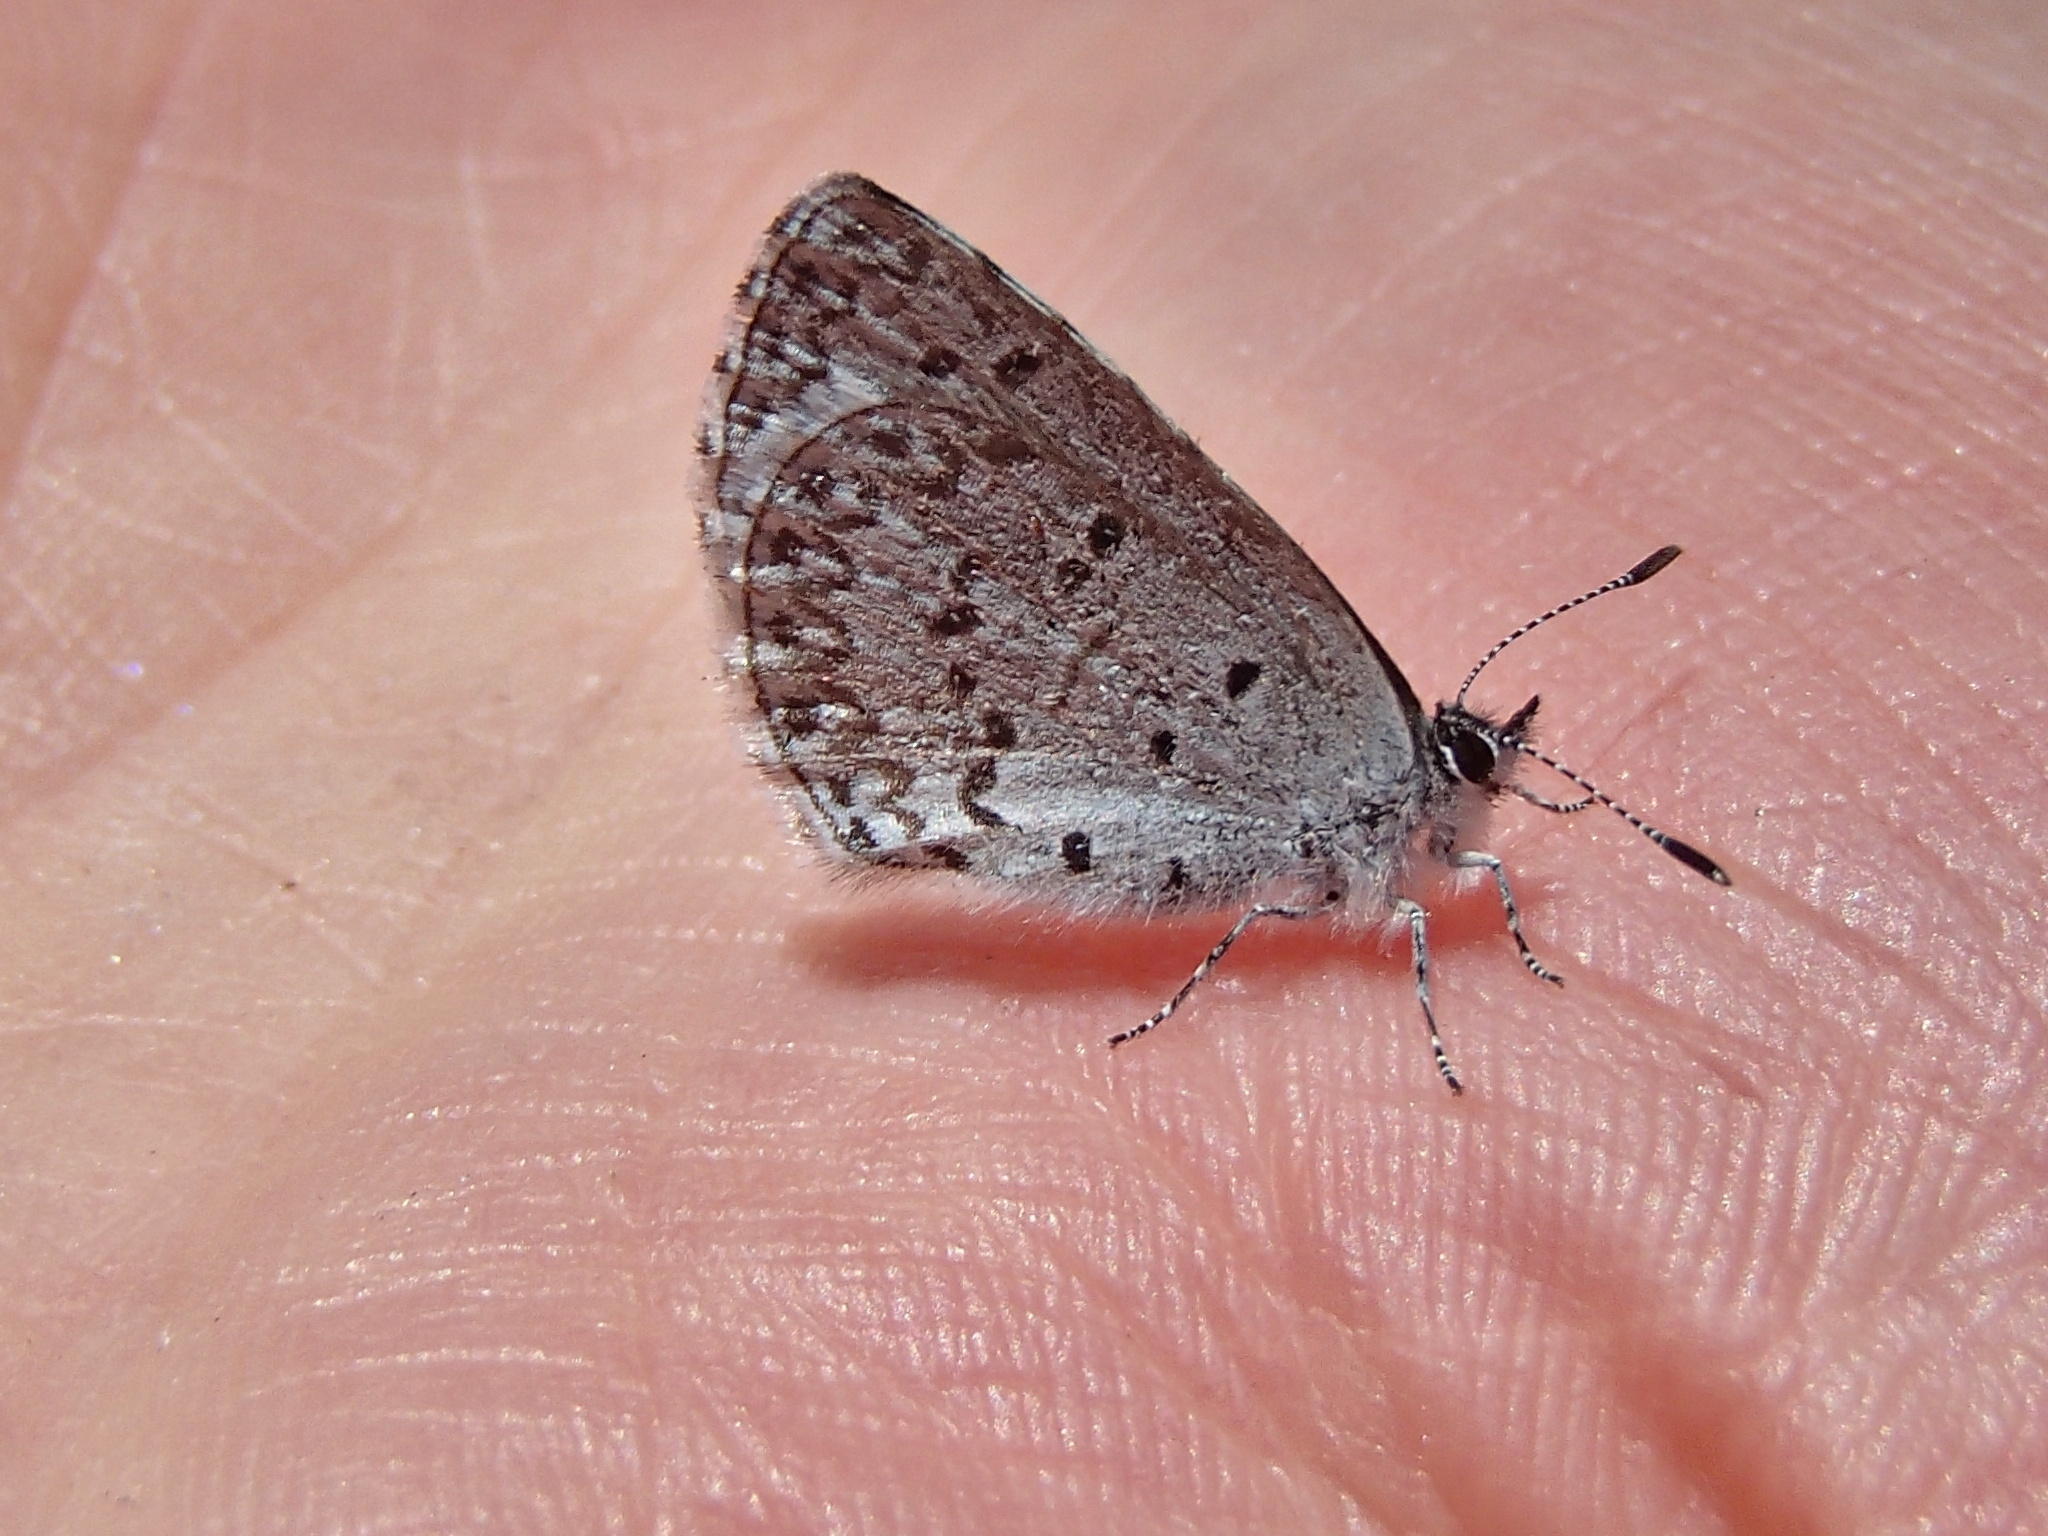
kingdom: Animalia
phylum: Arthropoda
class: Insecta
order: Lepidoptera
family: Lycaenidae
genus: Celastrina
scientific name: Celastrina asheri
